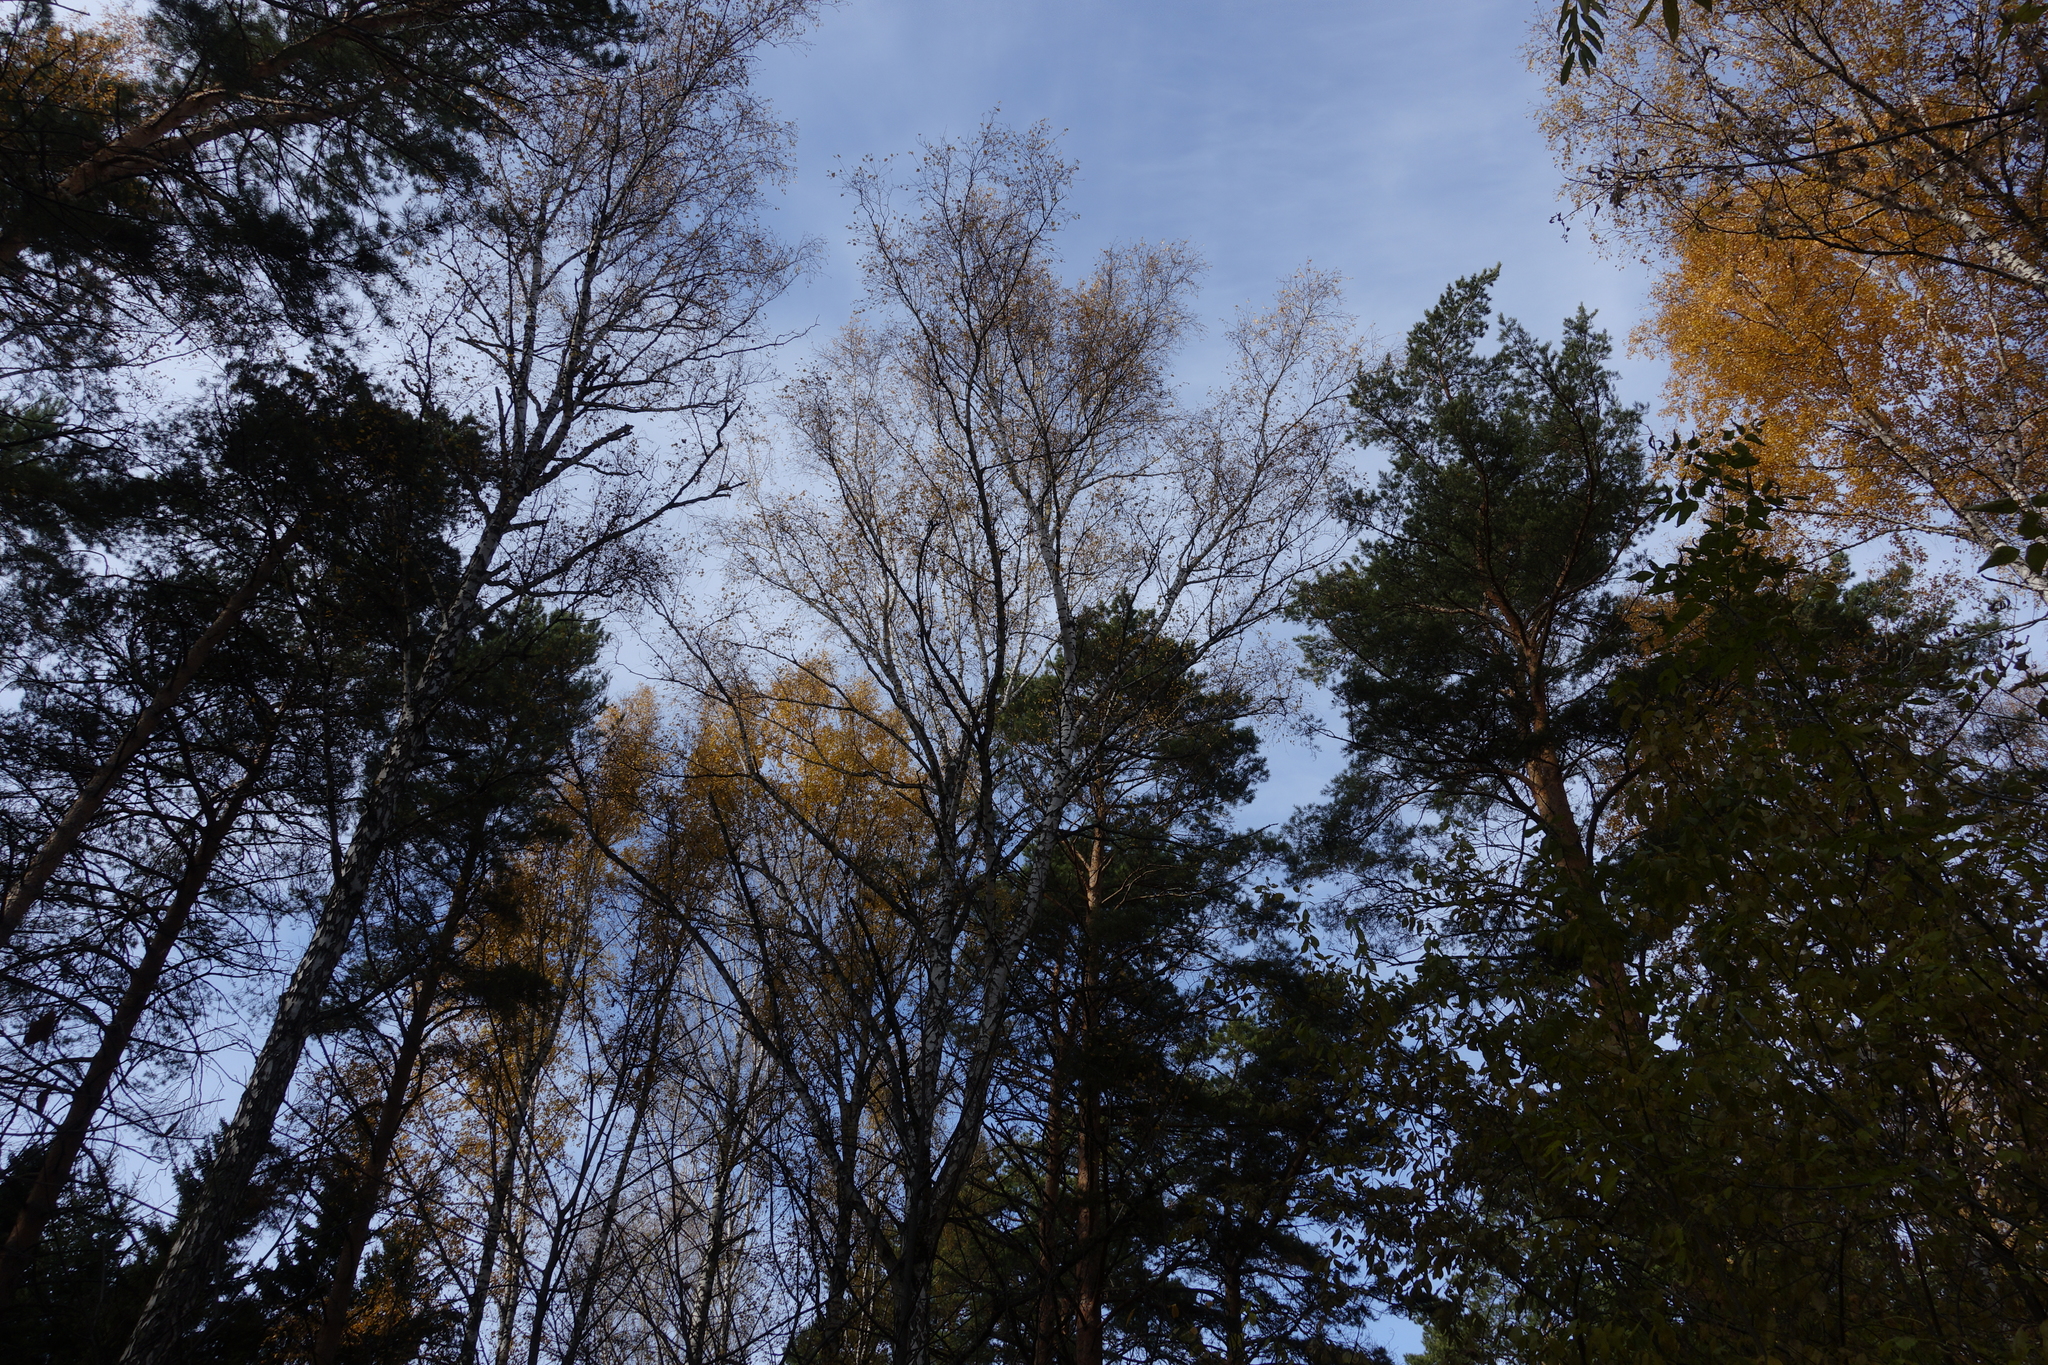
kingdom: Plantae
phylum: Tracheophyta
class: Pinopsida
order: Pinales
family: Pinaceae
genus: Pinus
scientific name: Pinus sylvestris
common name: Scots pine
